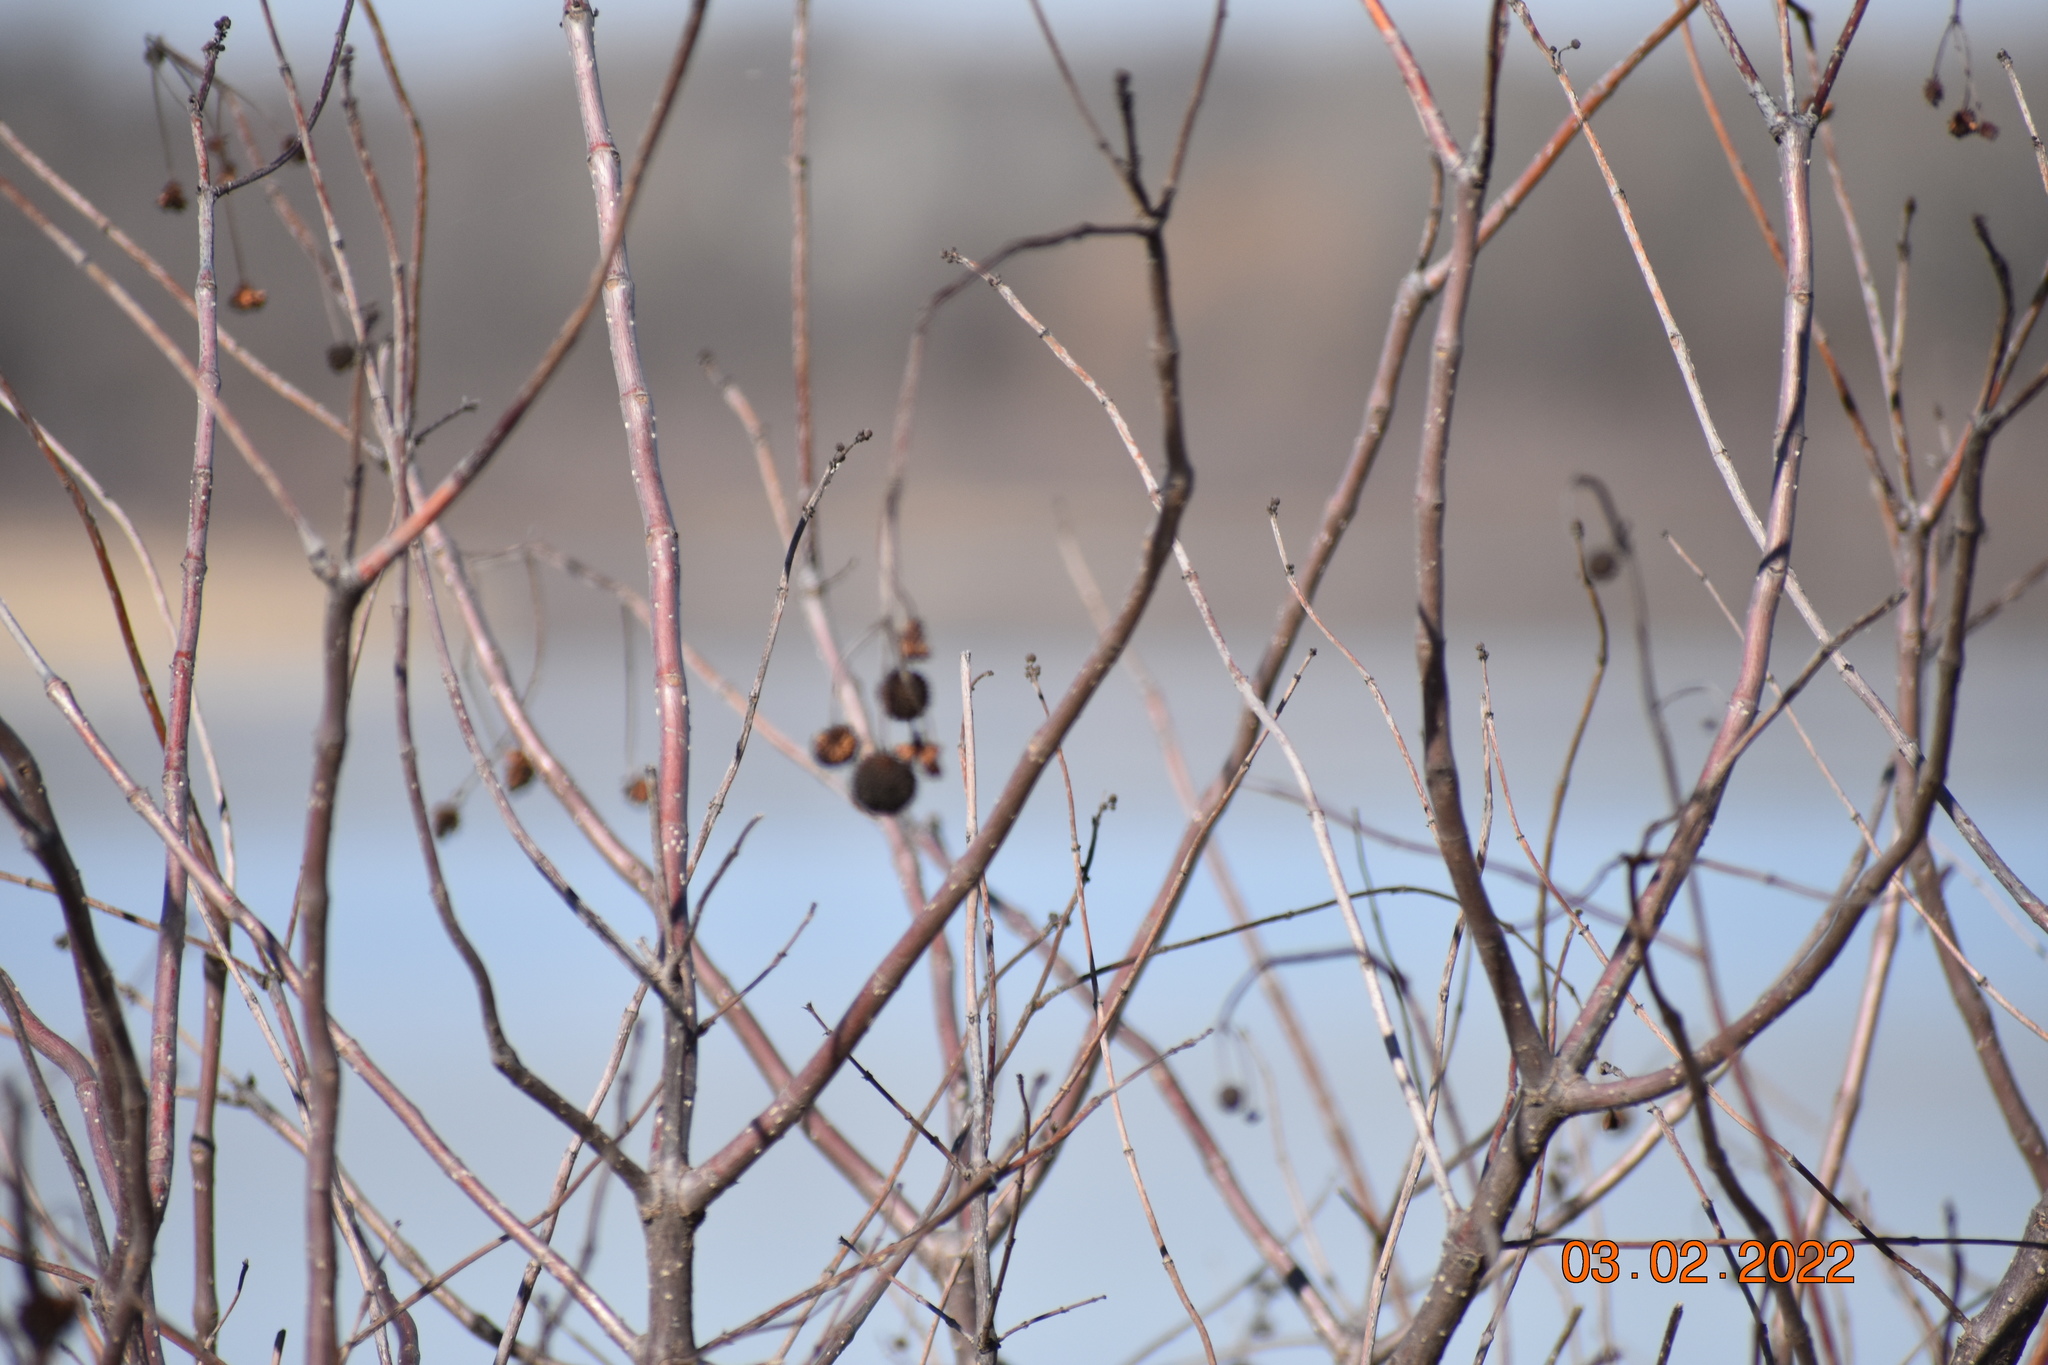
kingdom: Plantae
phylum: Tracheophyta
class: Magnoliopsida
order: Gentianales
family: Rubiaceae
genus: Cephalanthus
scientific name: Cephalanthus occidentalis
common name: Button-willow
